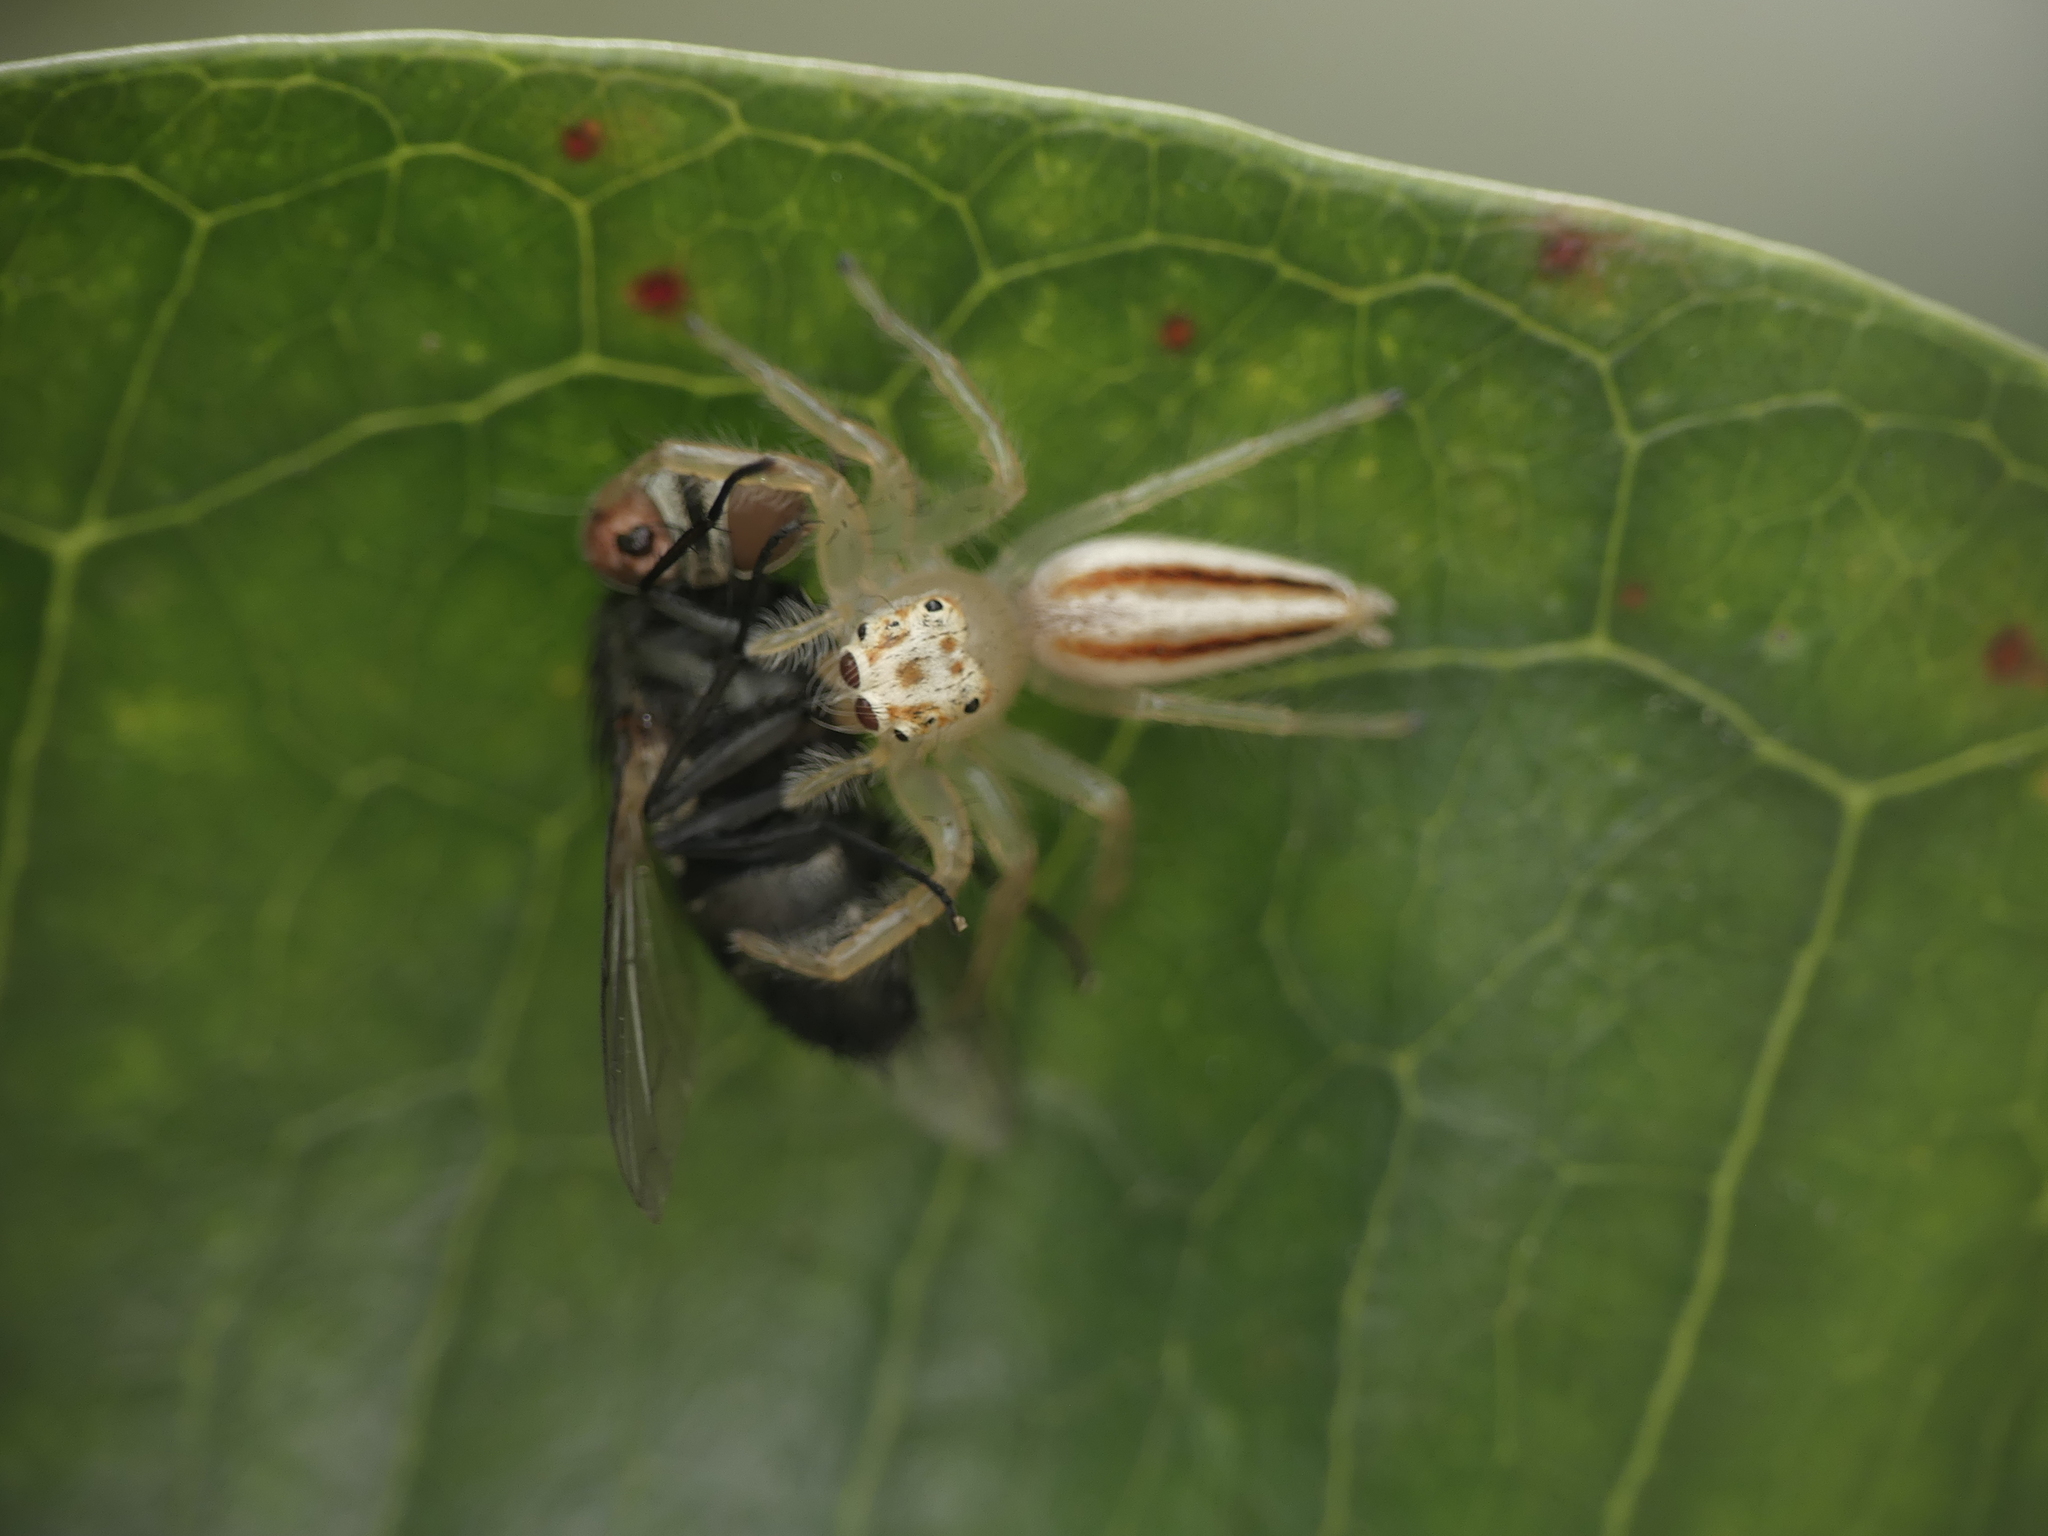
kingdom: Animalia
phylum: Arthropoda
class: Arachnida
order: Araneae
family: Salticidae
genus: Telamonia
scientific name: Telamonia dimidiata
